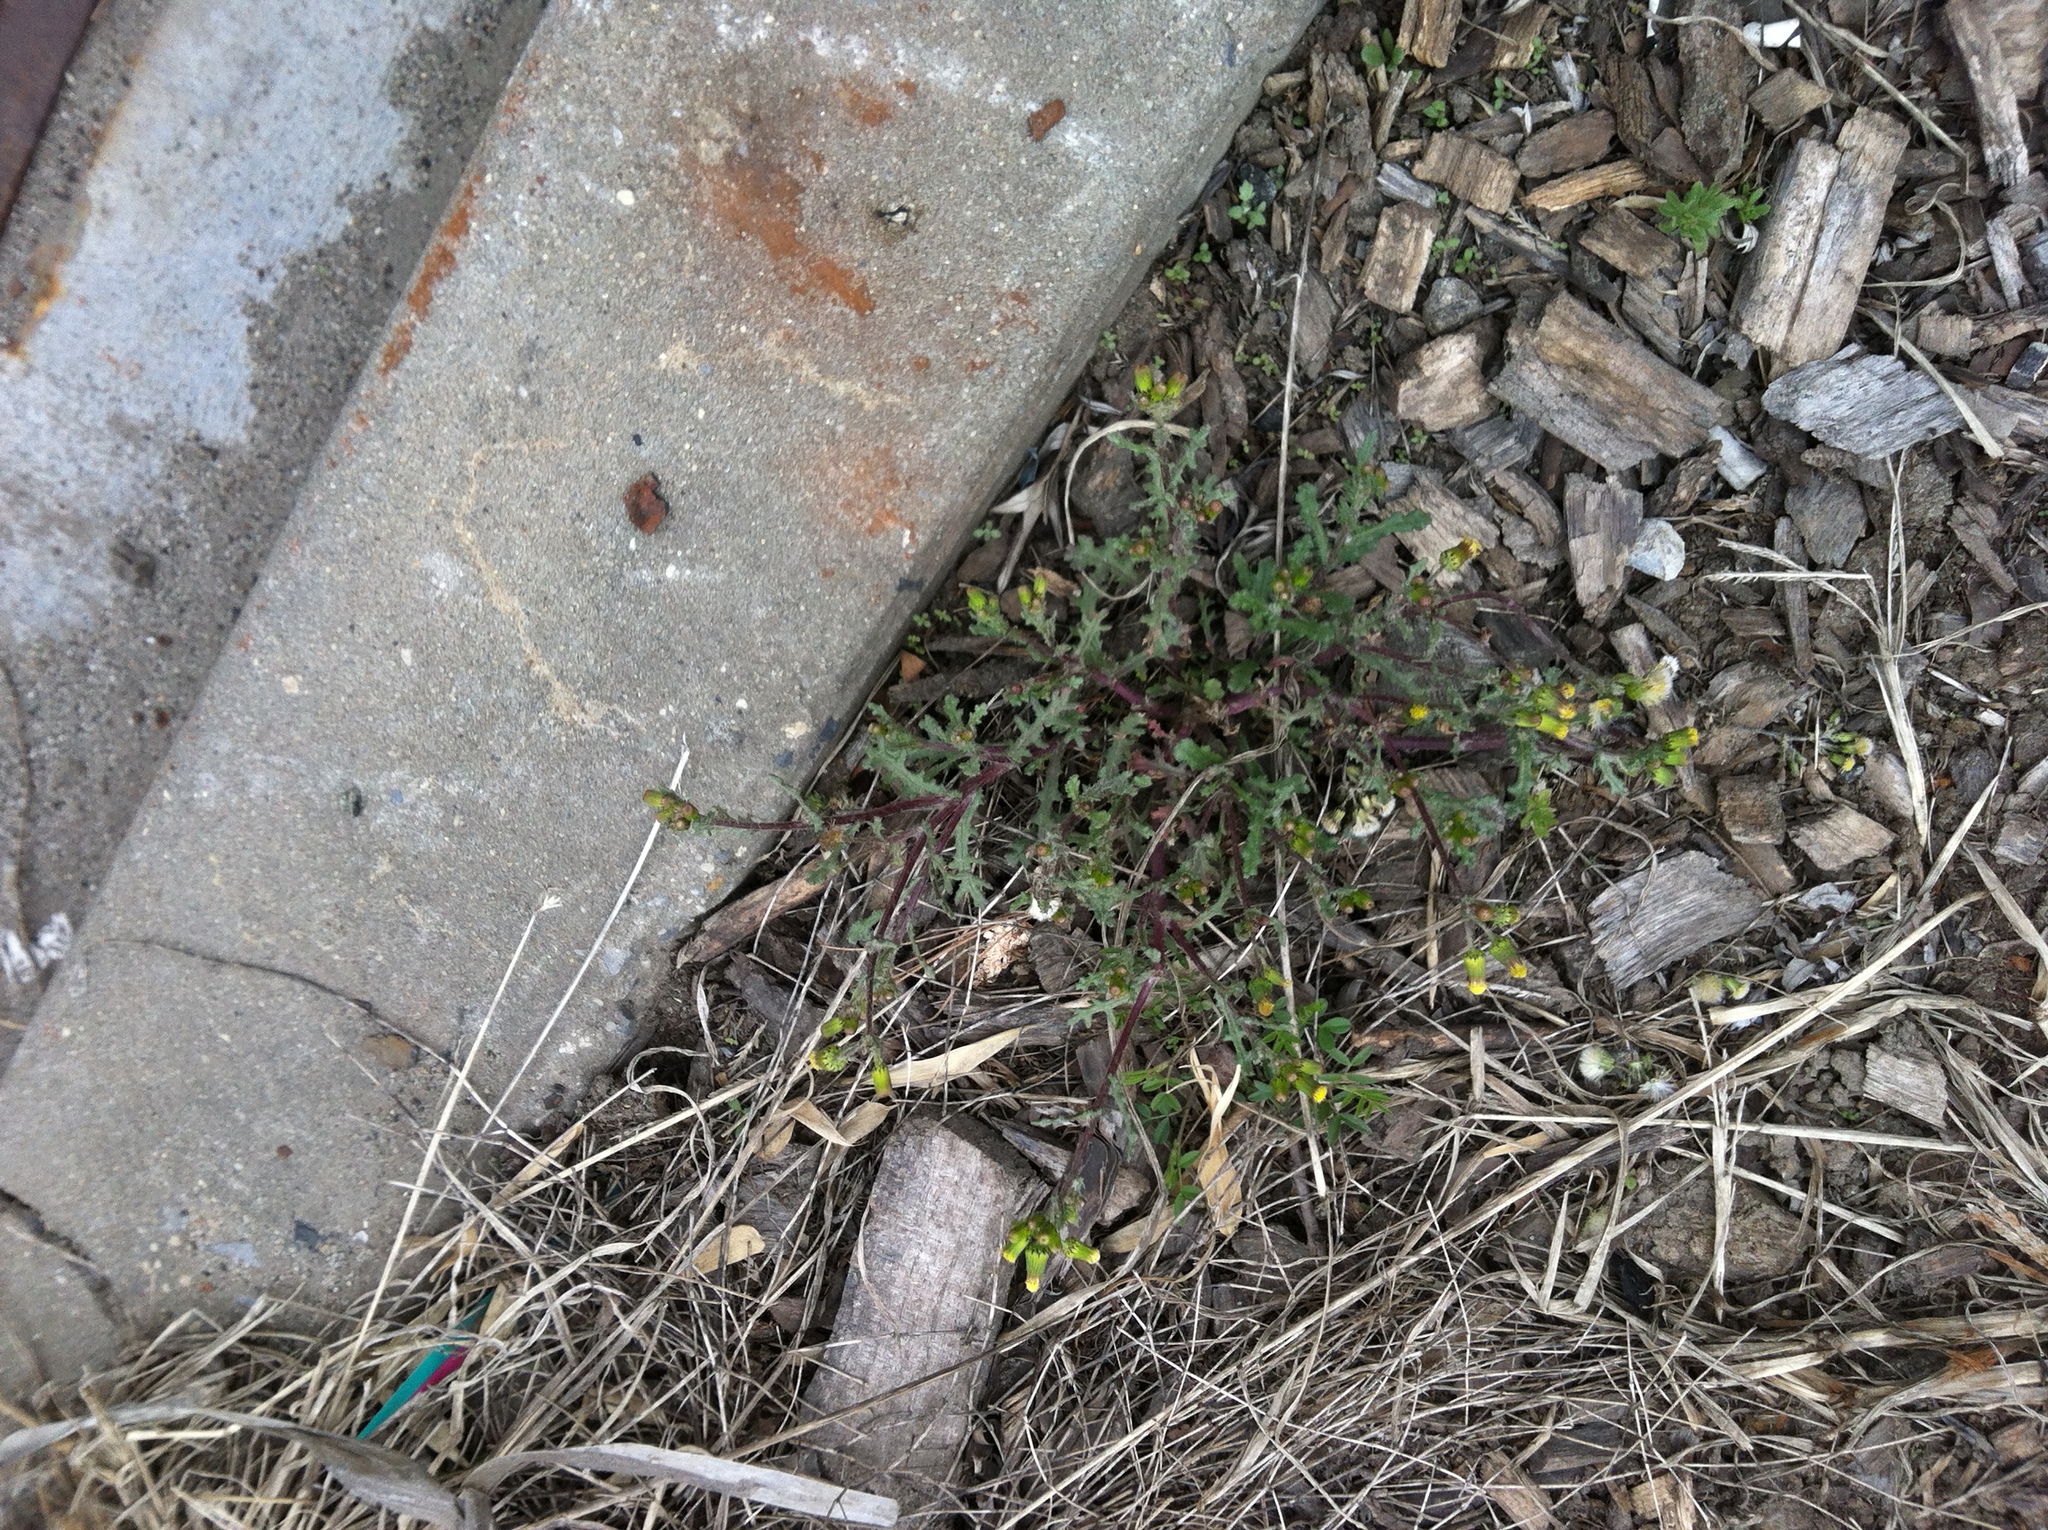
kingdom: Plantae
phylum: Tracheophyta
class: Magnoliopsida
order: Asterales
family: Asteraceae
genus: Senecio
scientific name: Senecio vulgaris
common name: Old-man-in-the-spring
